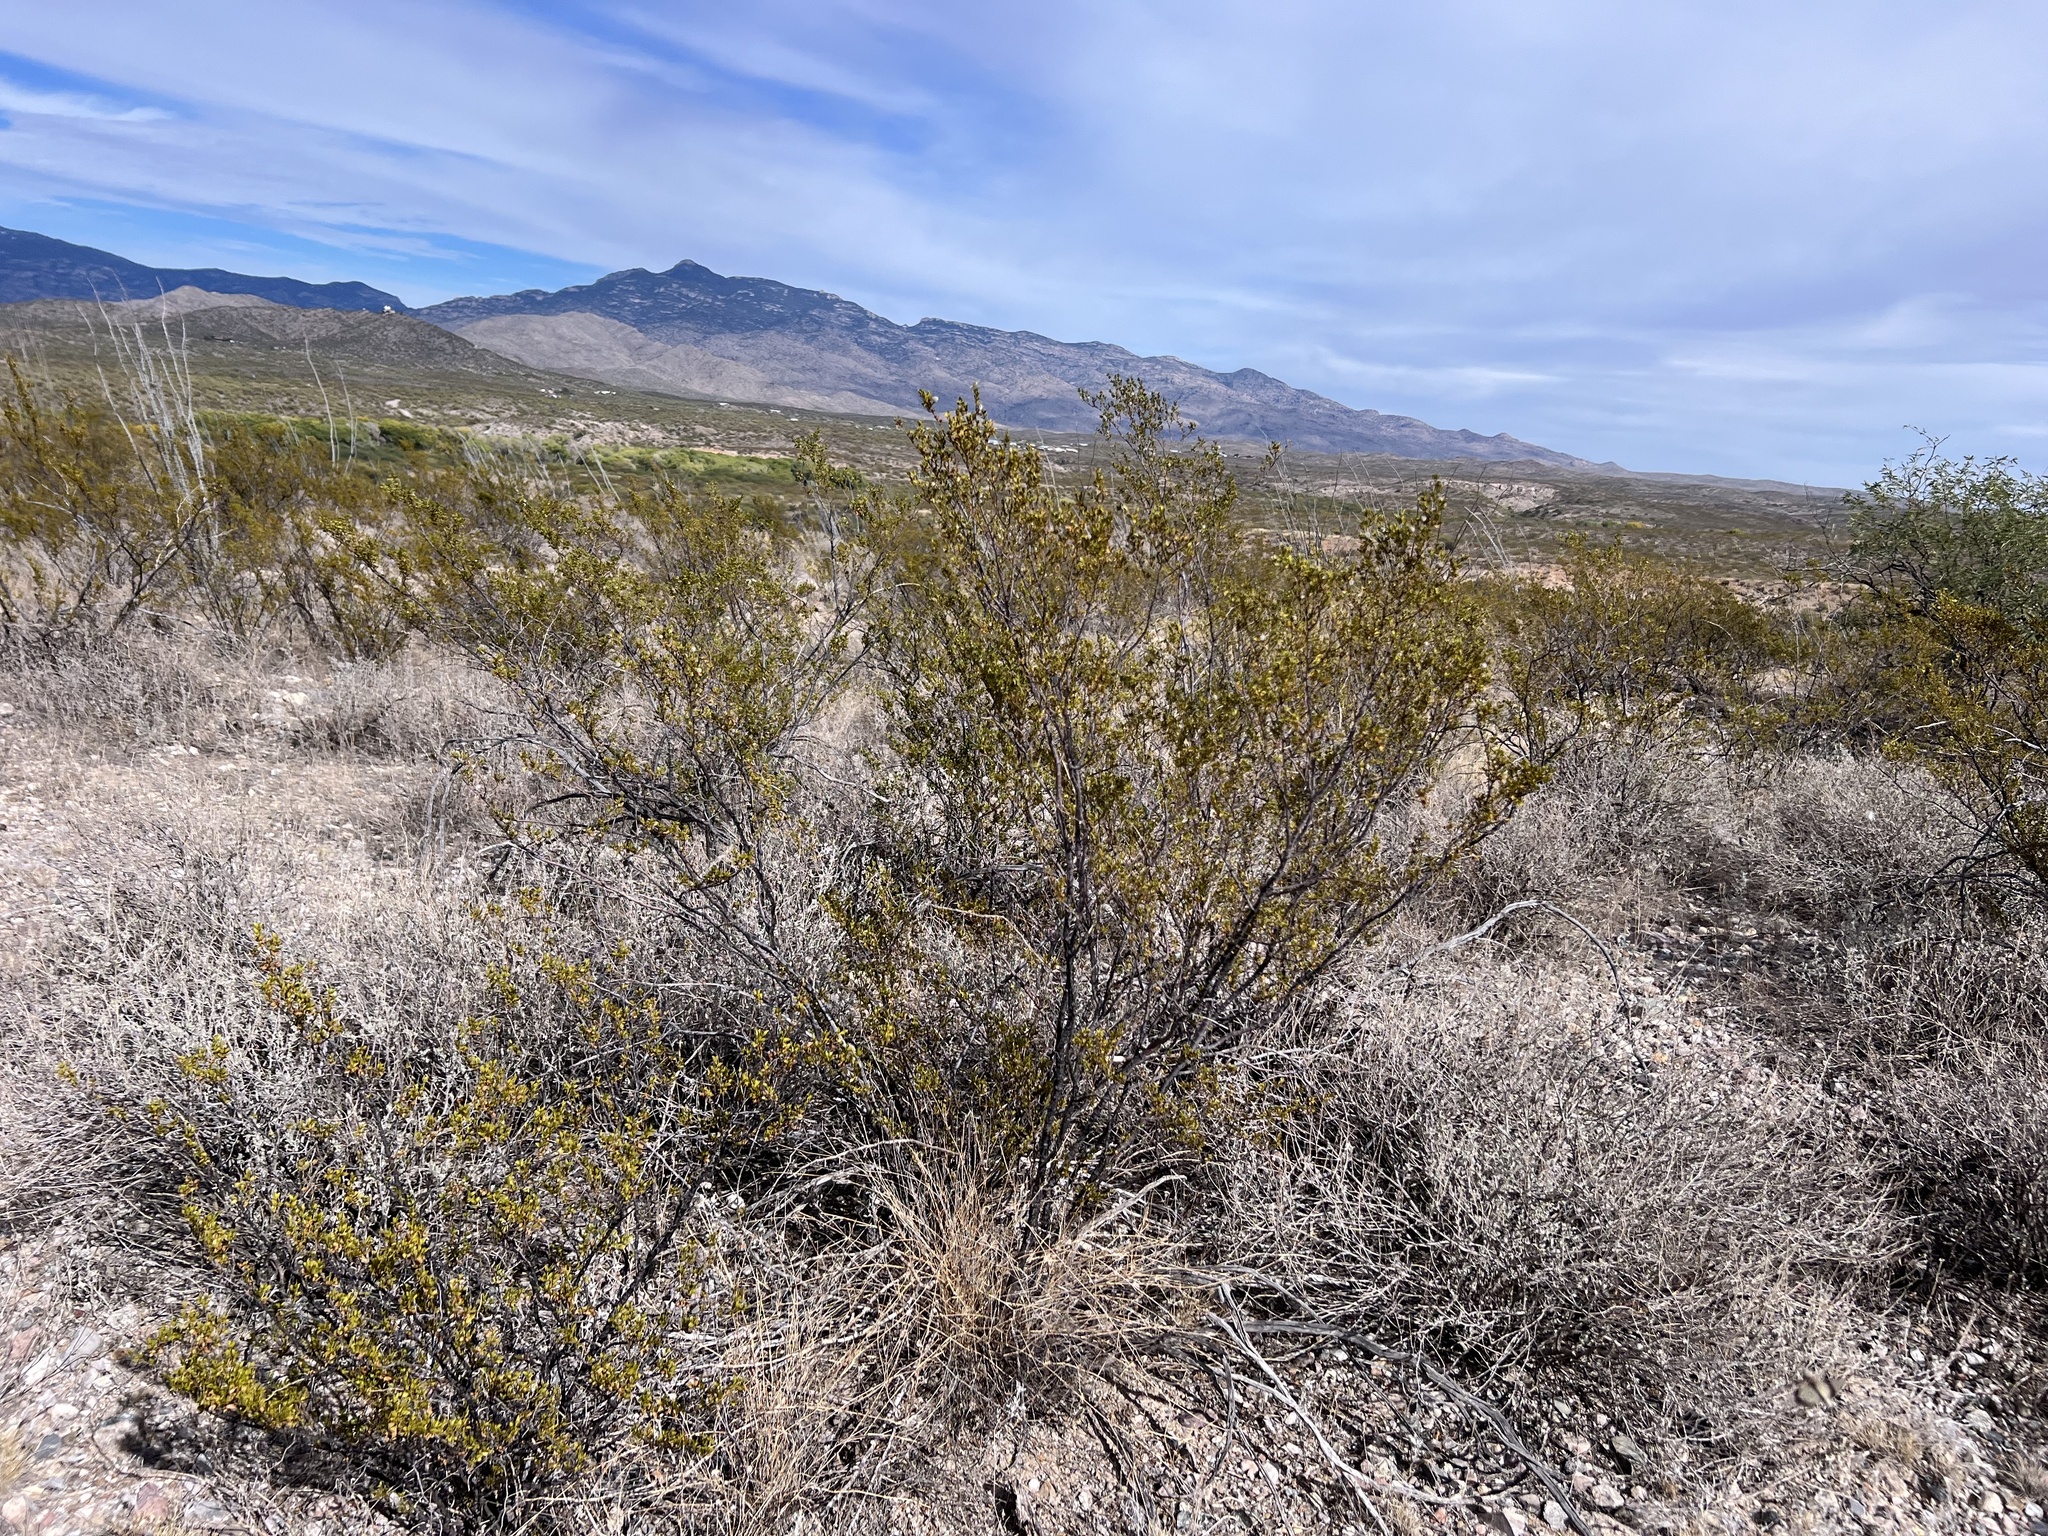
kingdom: Plantae
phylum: Tracheophyta
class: Magnoliopsida
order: Zygophyllales
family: Zygophyllaceae
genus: Larrea
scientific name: Larrea tridentata
